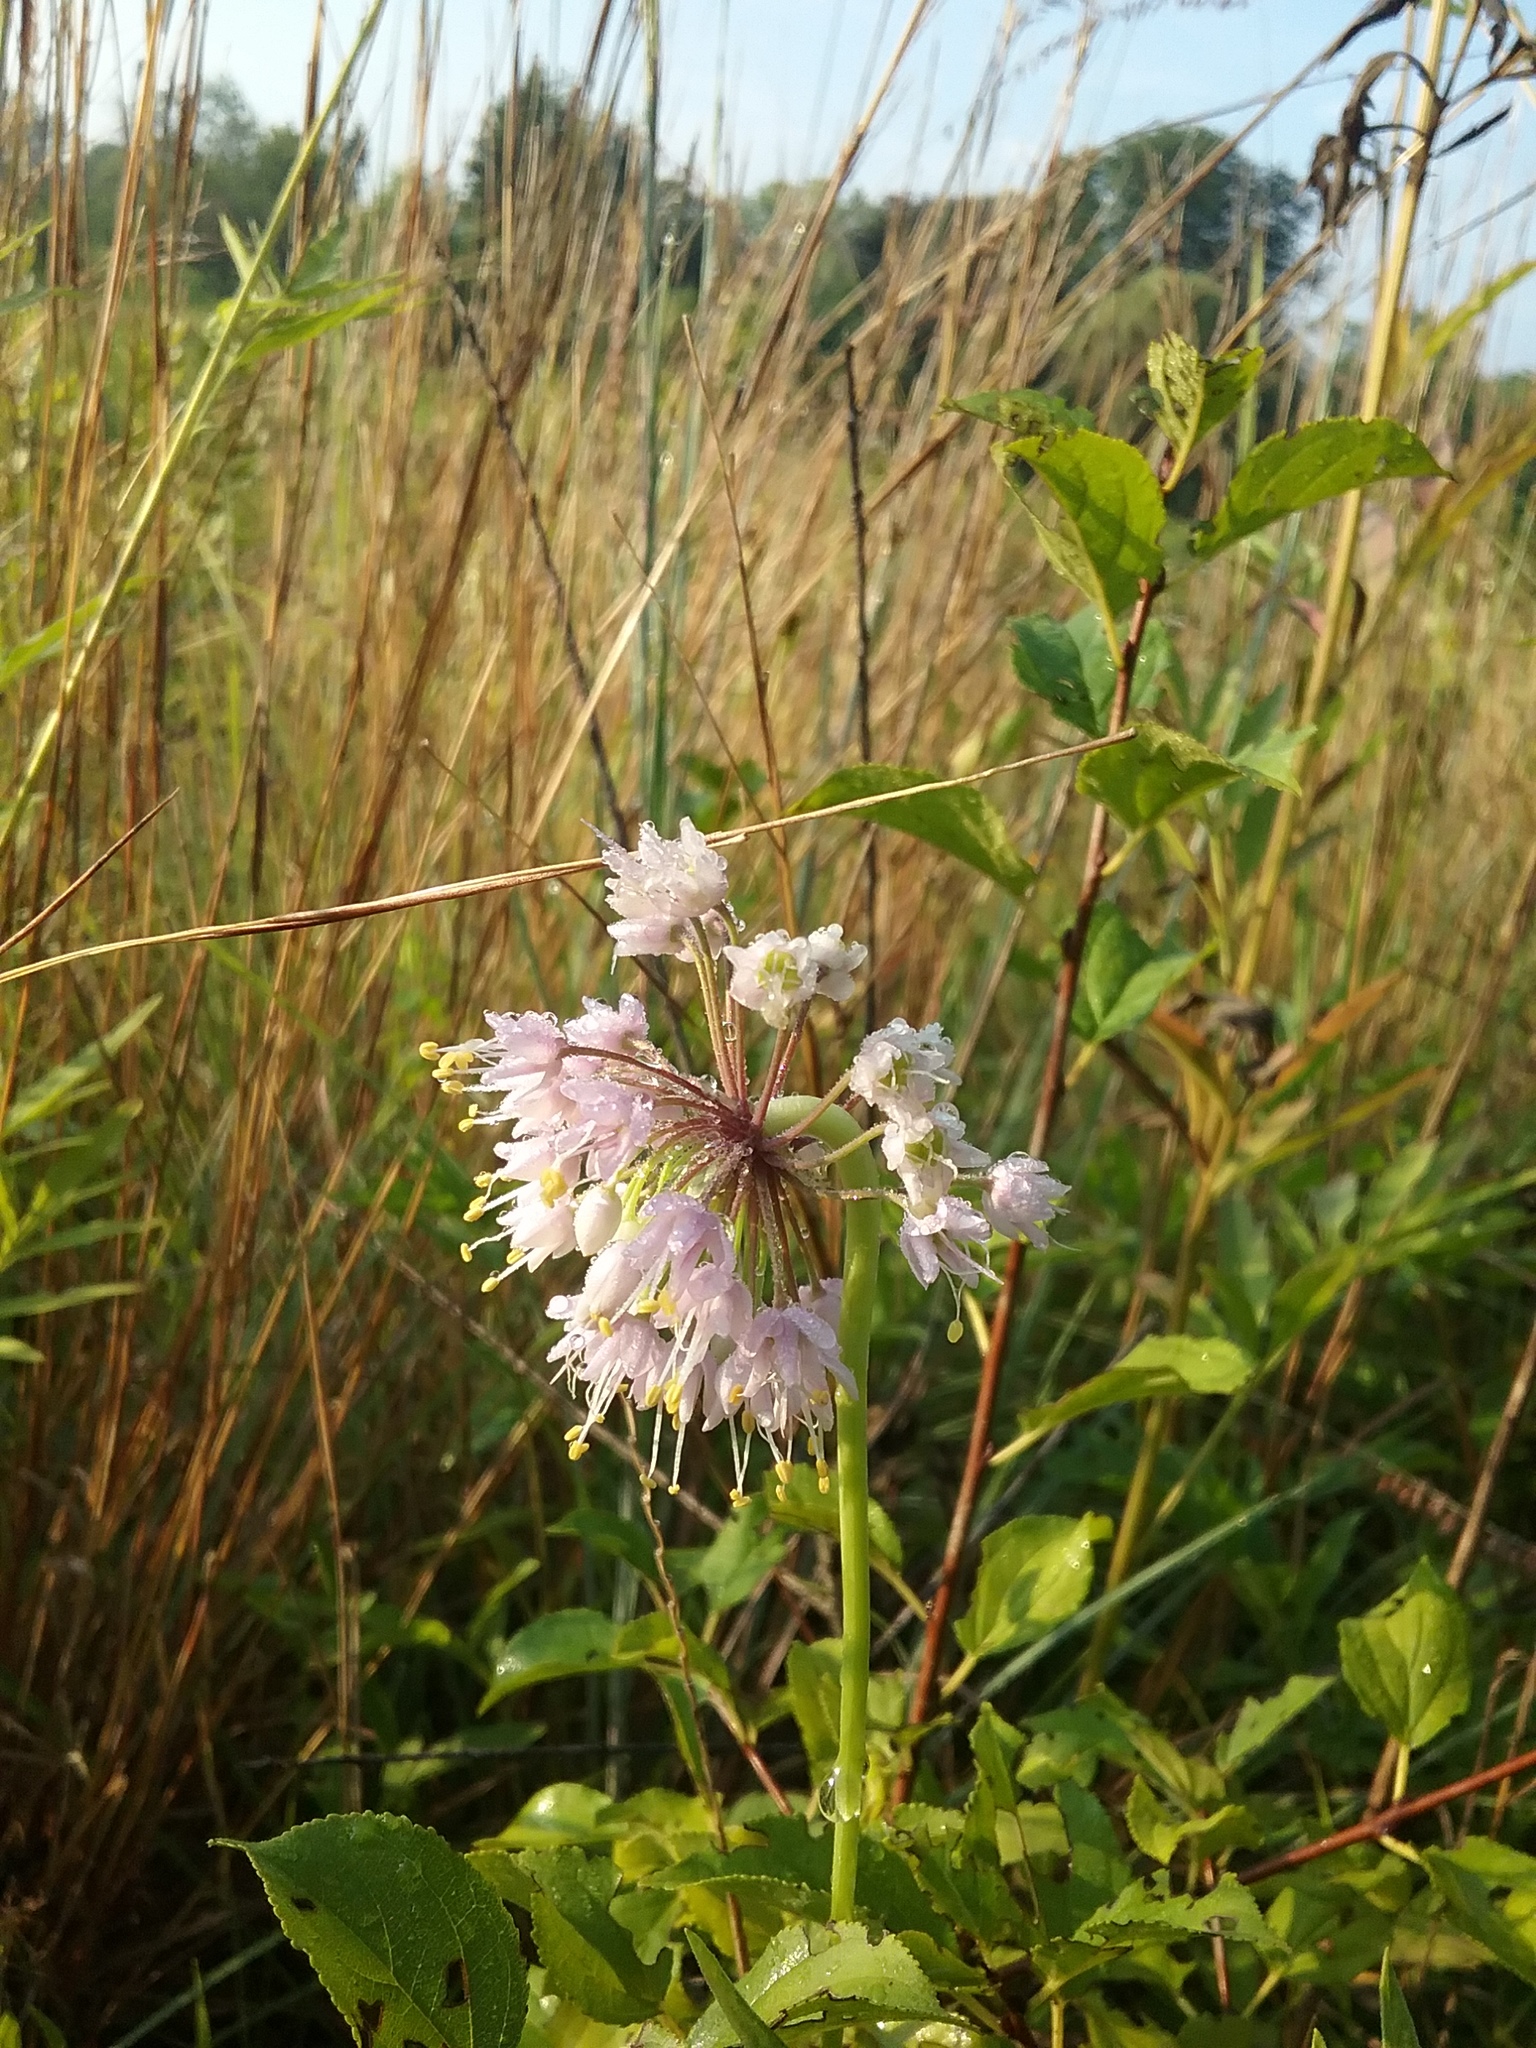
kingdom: Plantae
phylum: Tracheophyta
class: Liliopsida
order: Asparagales
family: Amaryllidaceae
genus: Allium
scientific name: Allium cernuum
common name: Nodding onion
